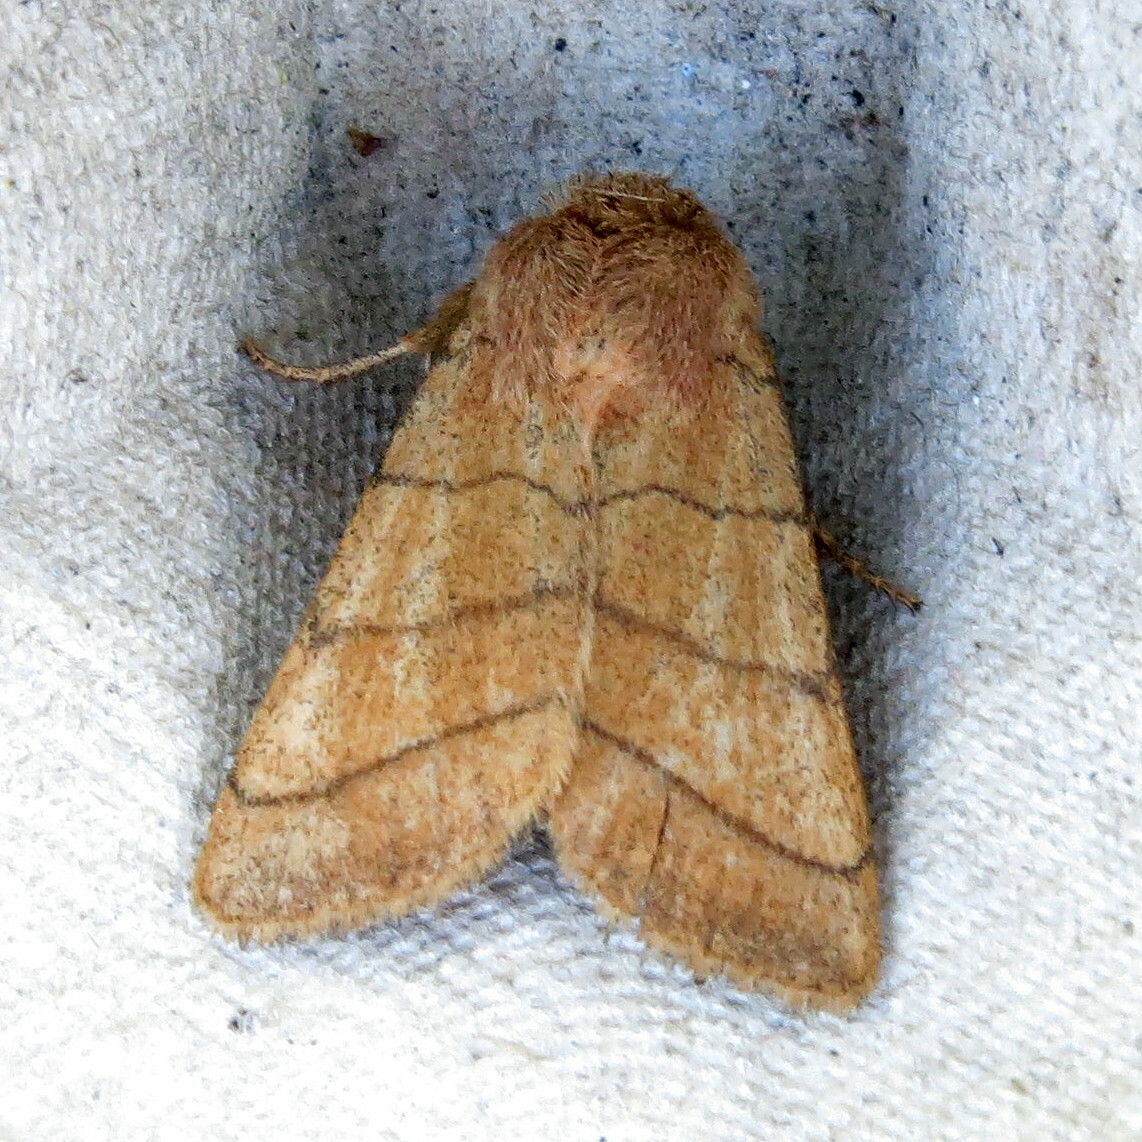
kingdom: Animalia
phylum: Arthropoda
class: Insecta
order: Lepidoptera
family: Noctuidae
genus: Charanyca
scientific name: Charanyca trigrammica
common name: Treble lines
